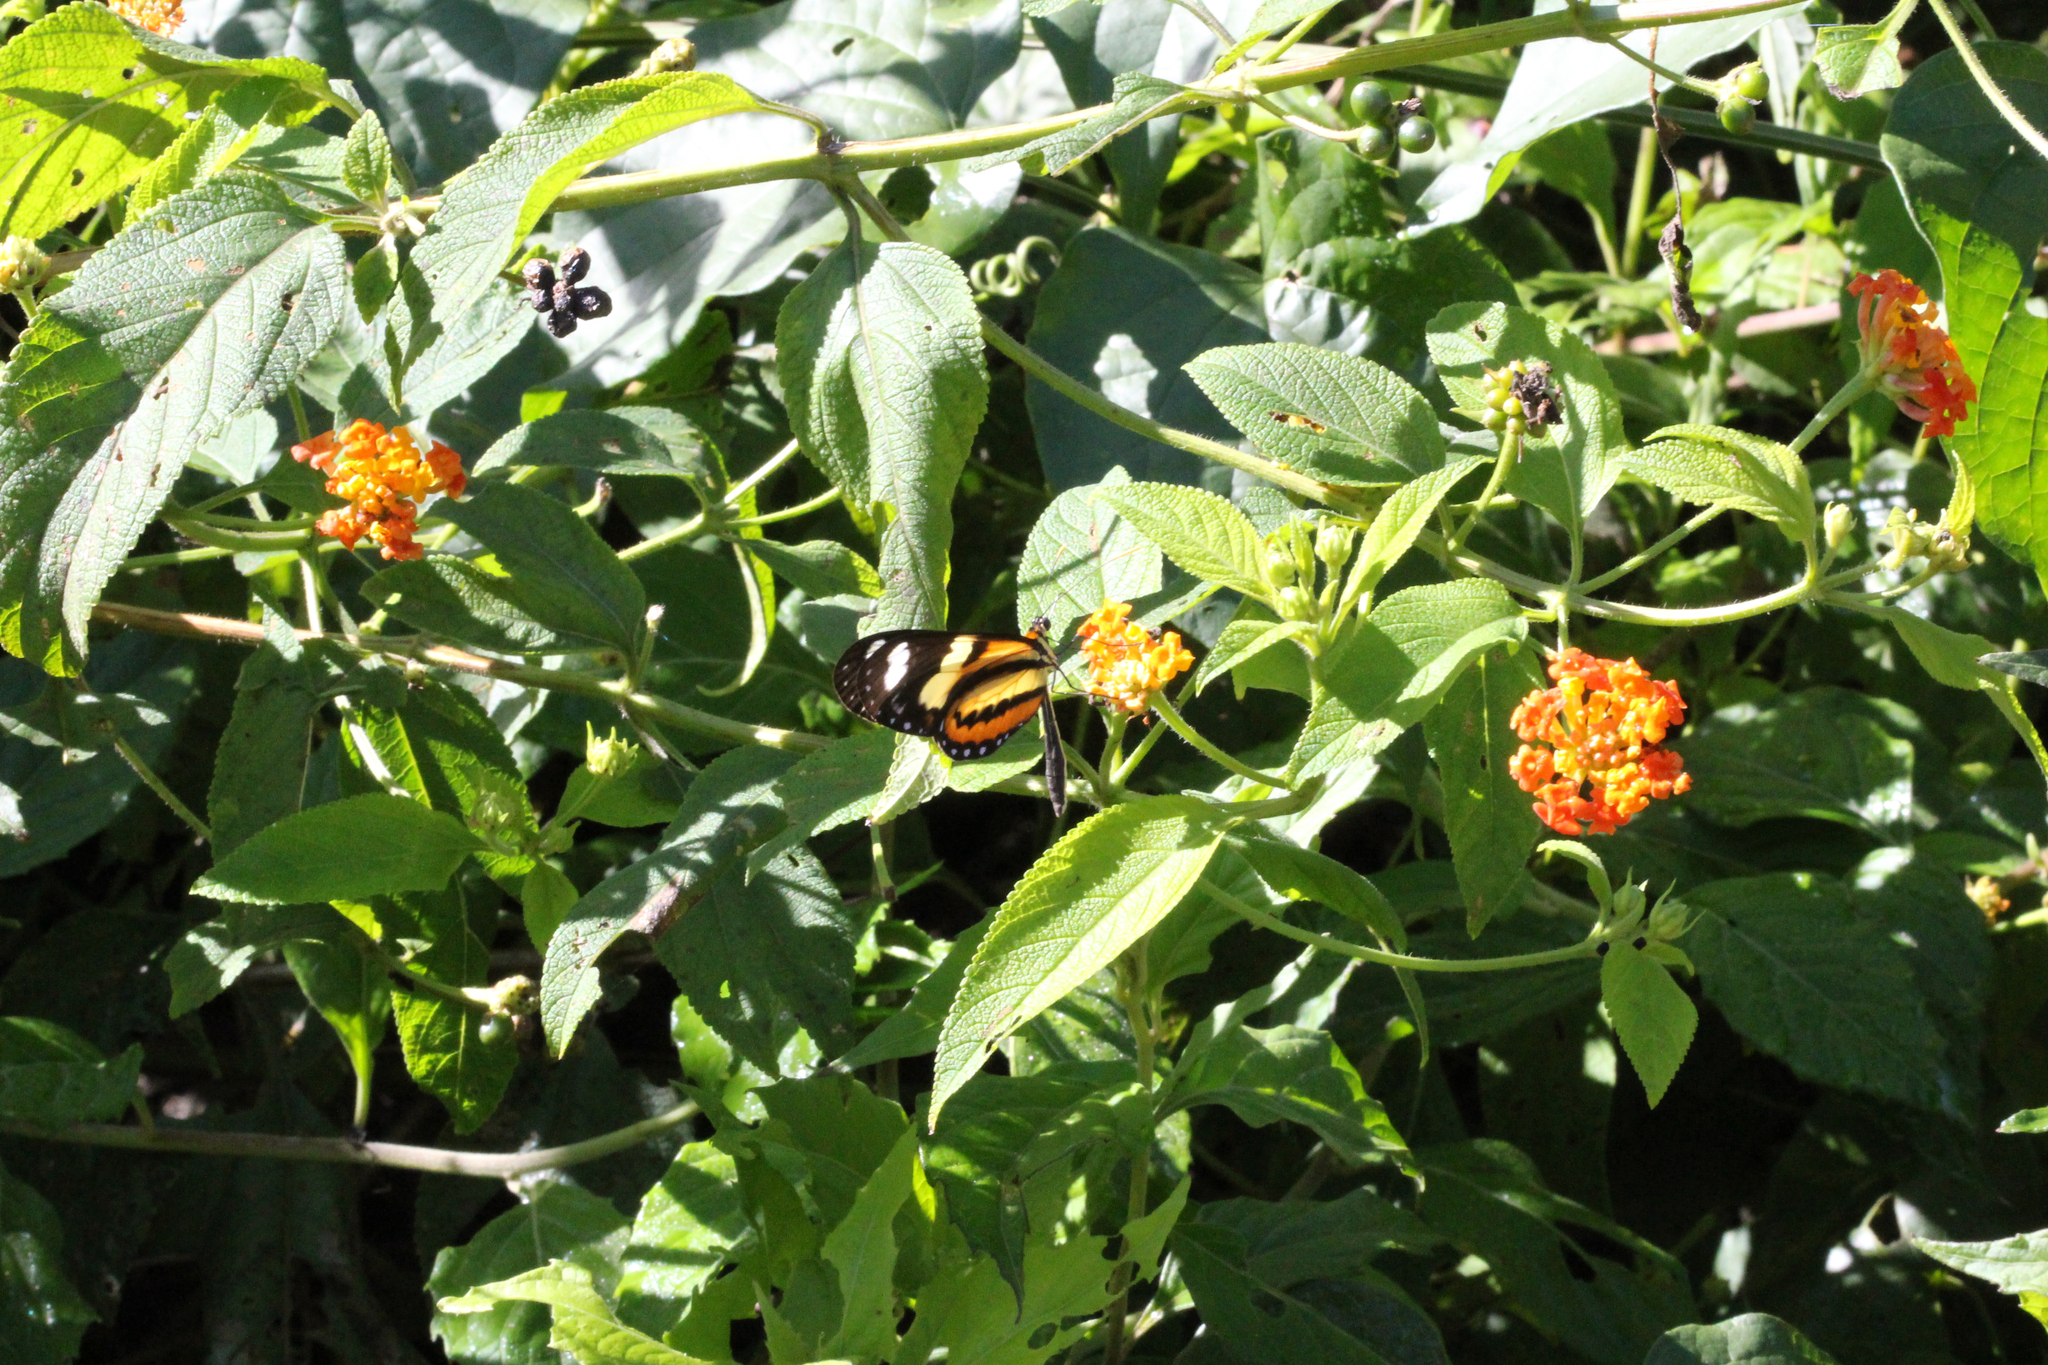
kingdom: Animalia
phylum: Arthropoda
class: Insecta
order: Lepidoptera
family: Nymphalidae
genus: Mechanitis
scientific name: Mechanitis lysimnia
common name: Lysimnia tigerwing
